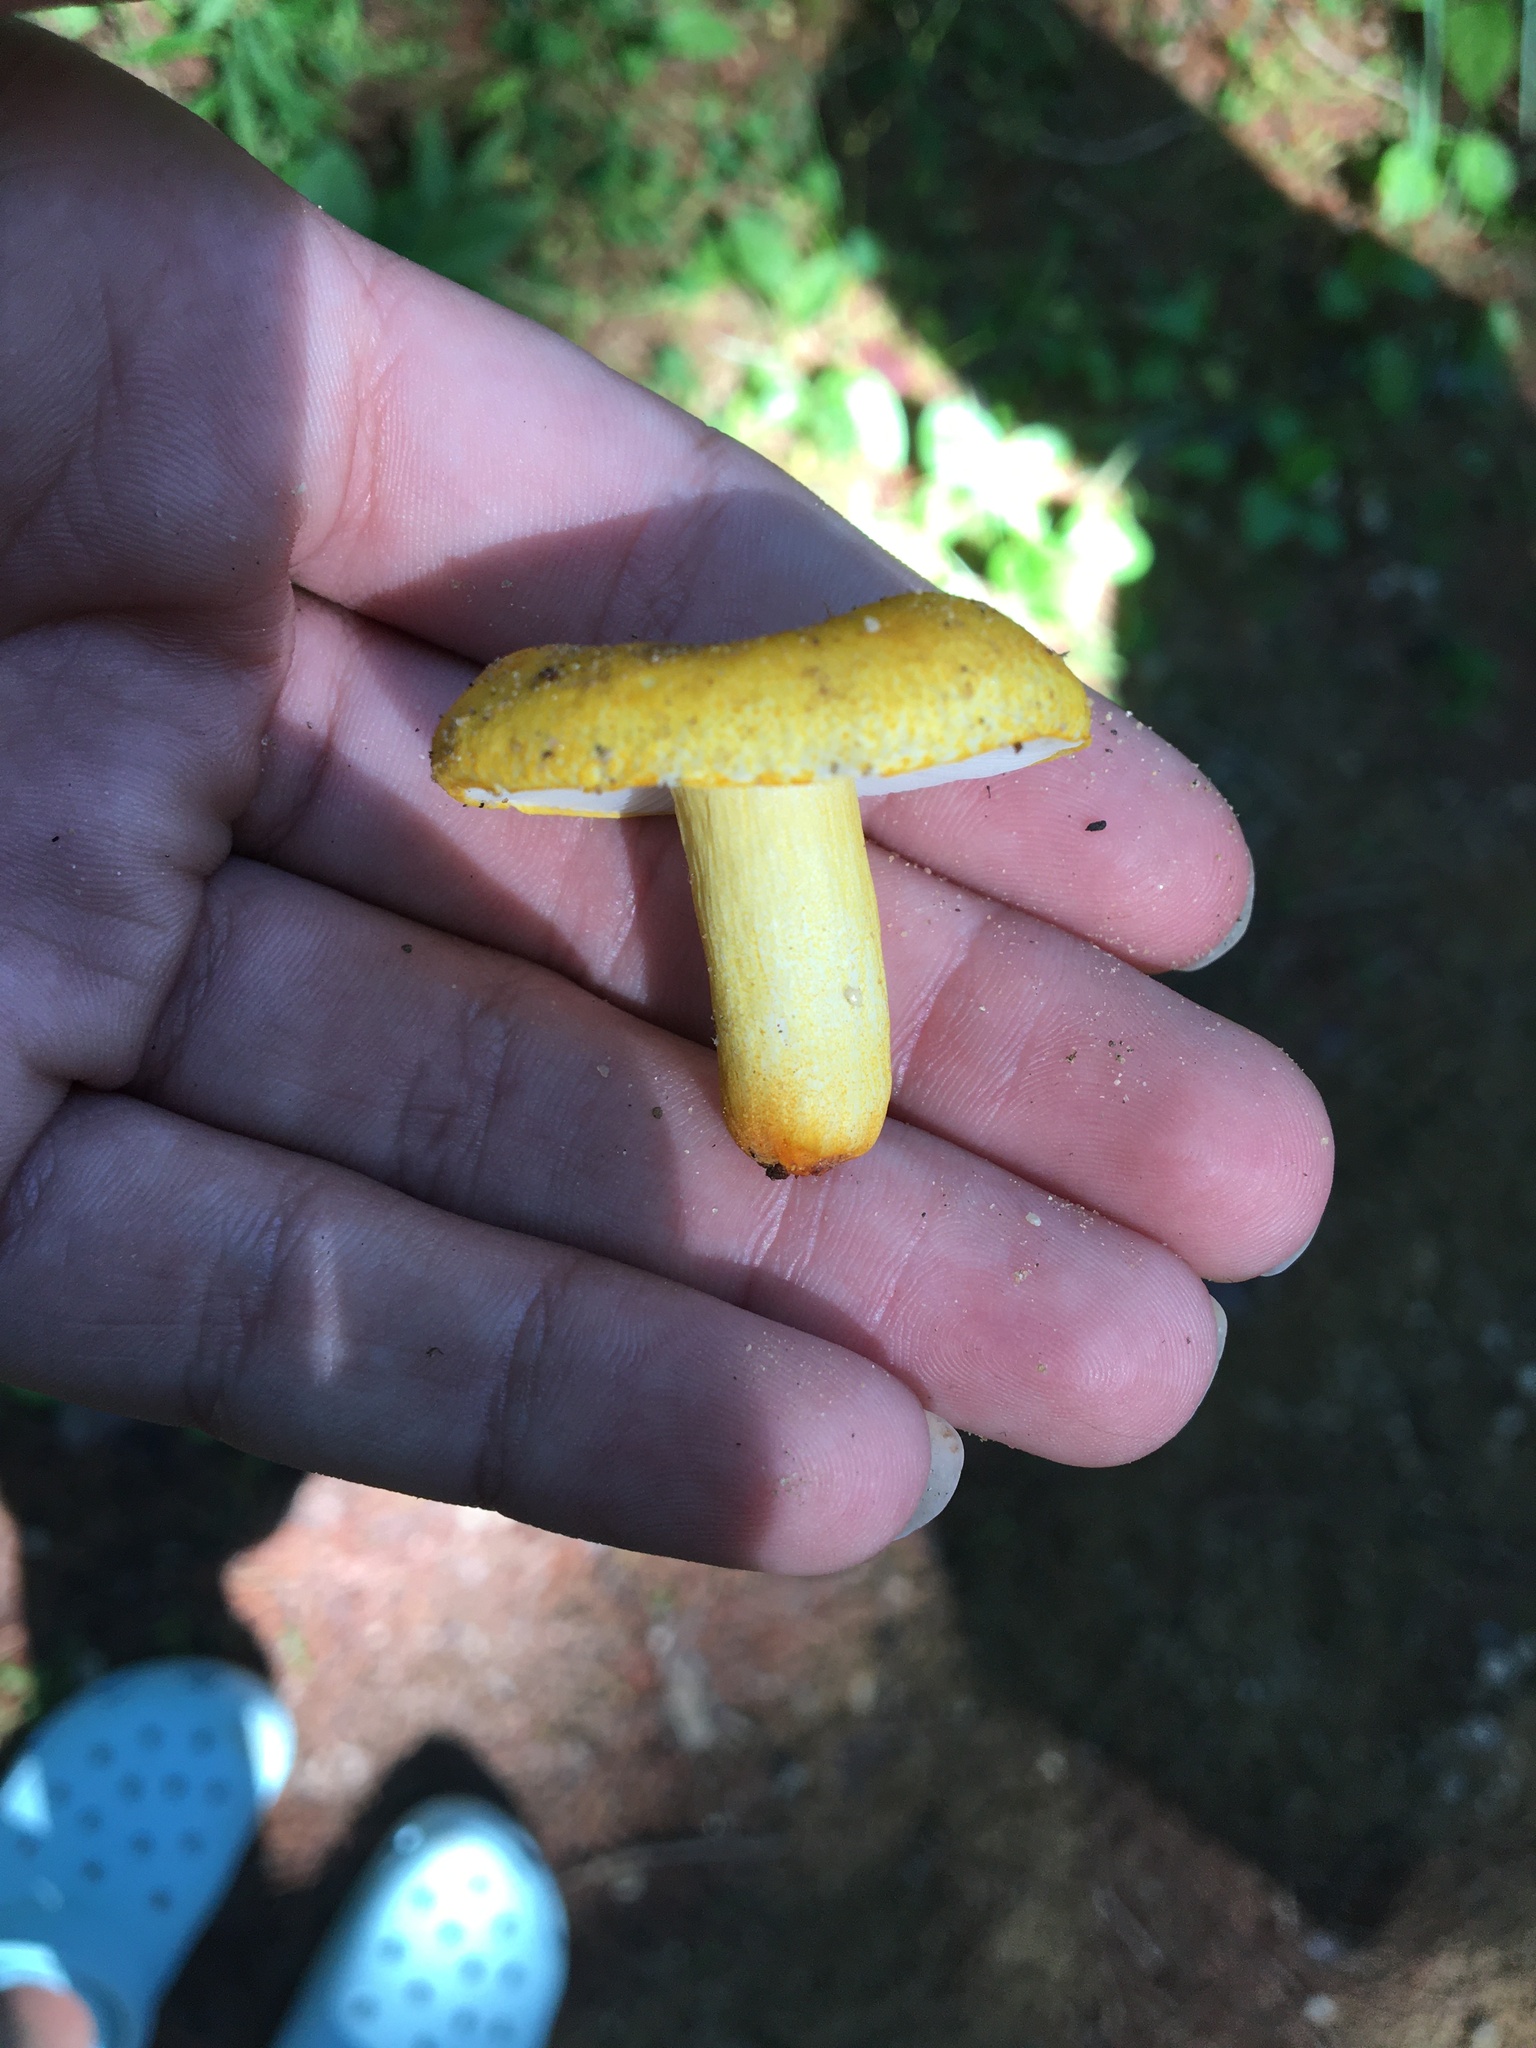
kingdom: Fungi
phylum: Basidiomycota
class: Agaricomycetes
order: Russulales
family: Russulaceae
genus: Russula
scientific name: Russula flavida
